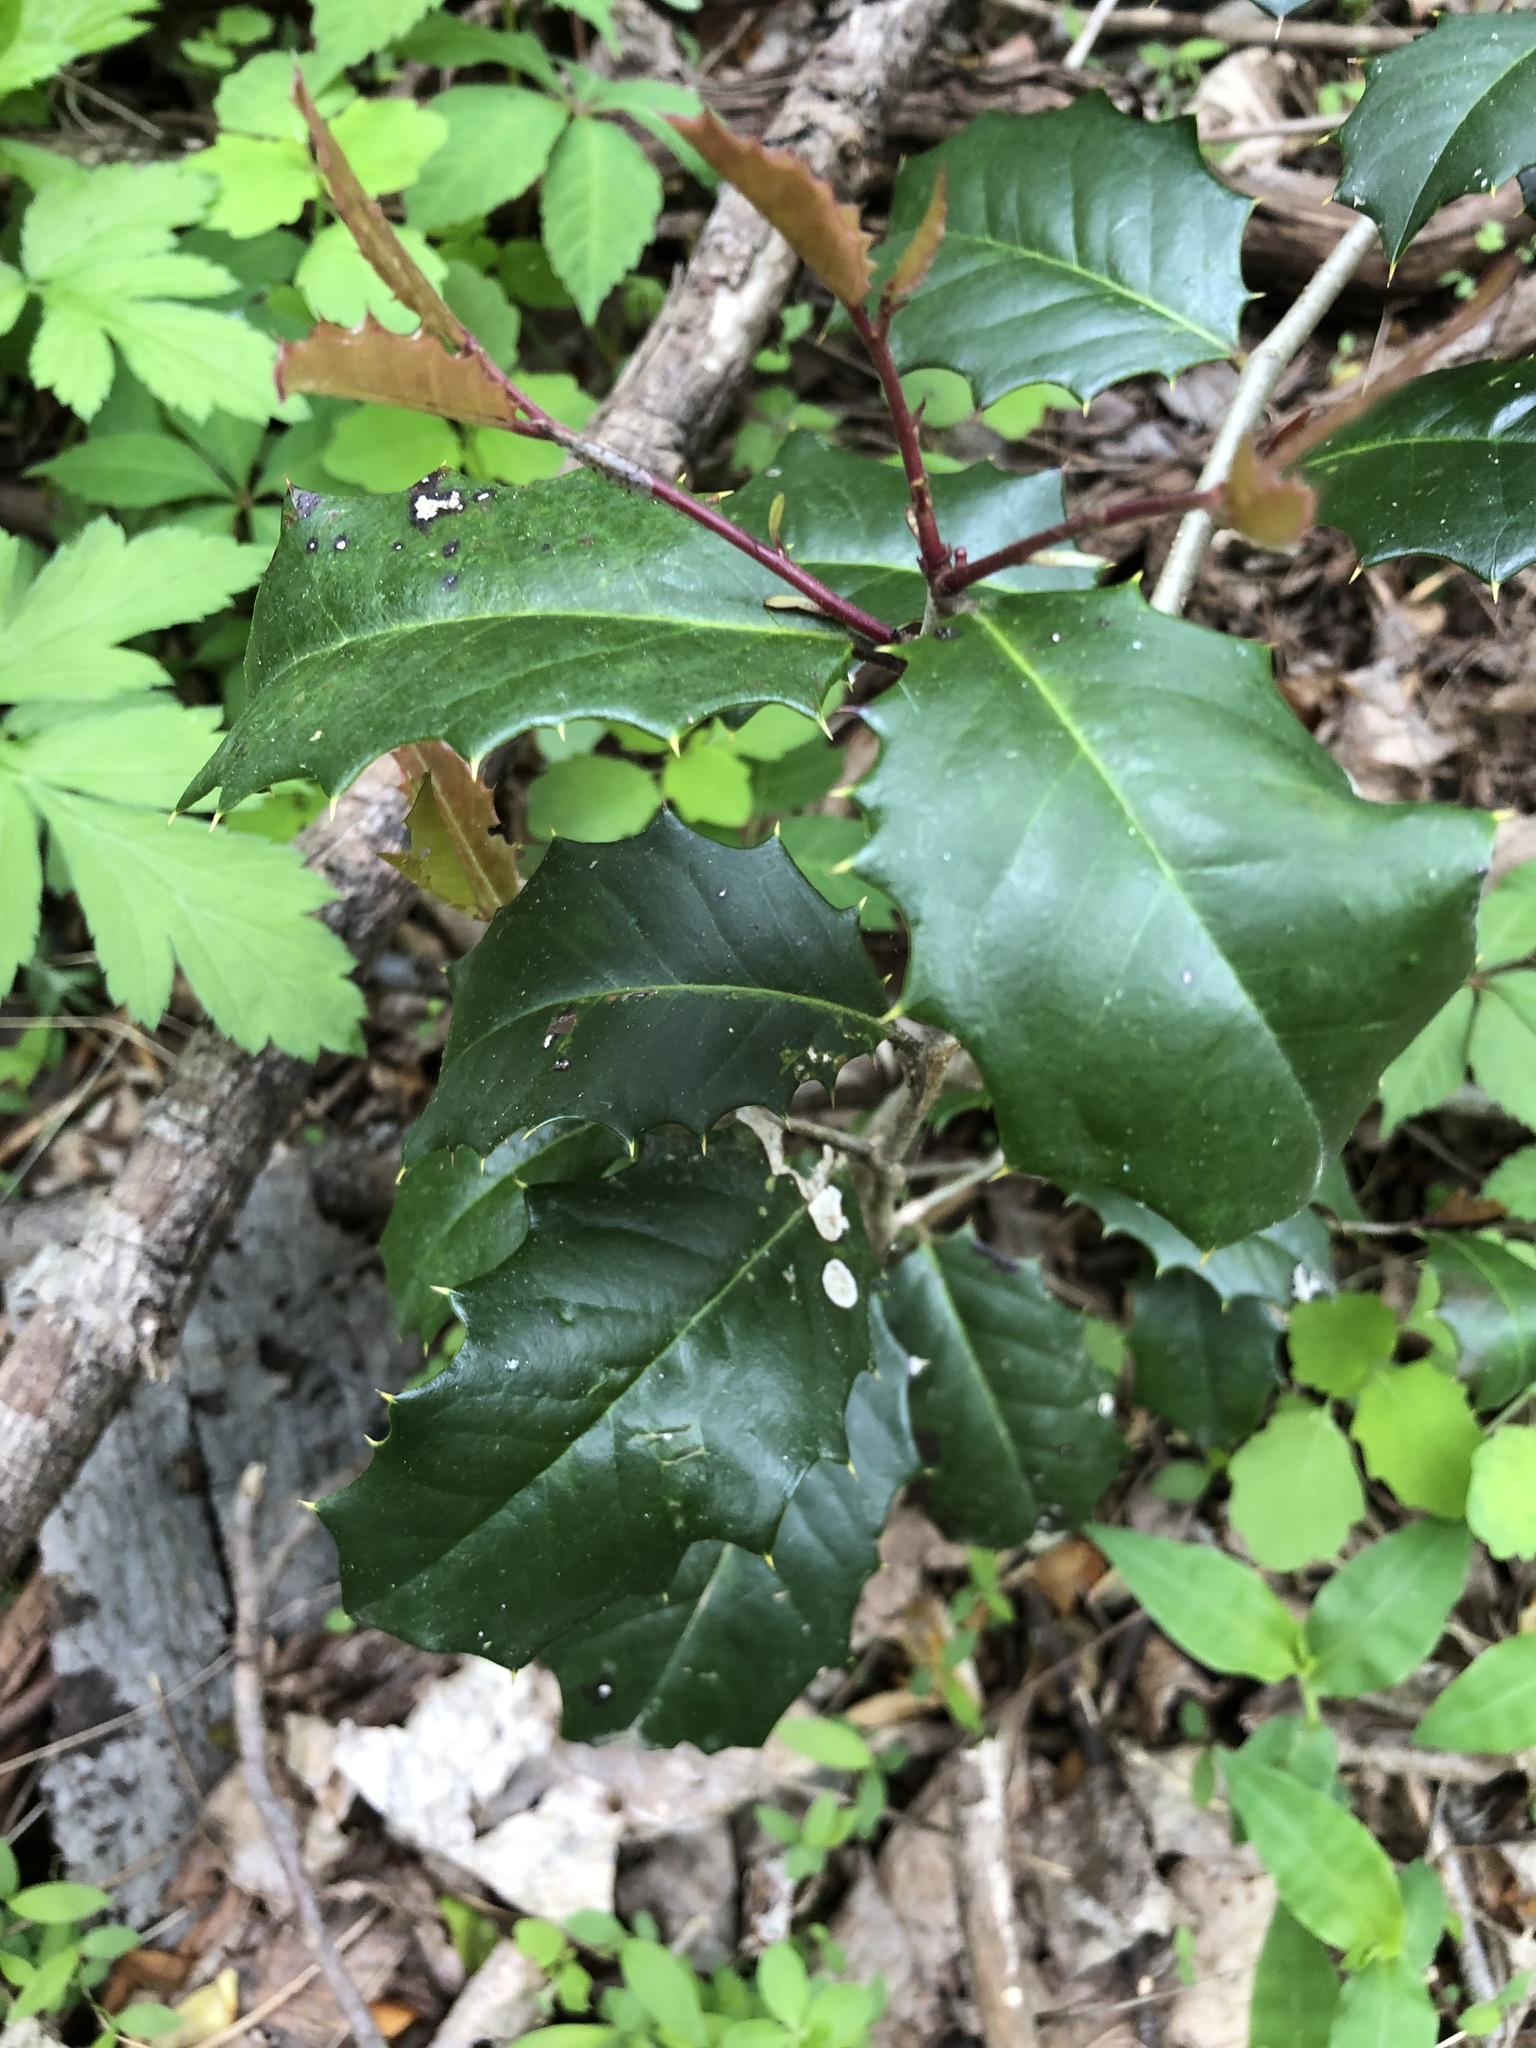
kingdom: Plantae
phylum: Tracheophyta
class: Magnoliopsida
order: Aquifoliales
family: Aquifoliaceae
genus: Ilex
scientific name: Ilex opaca
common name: American holly
